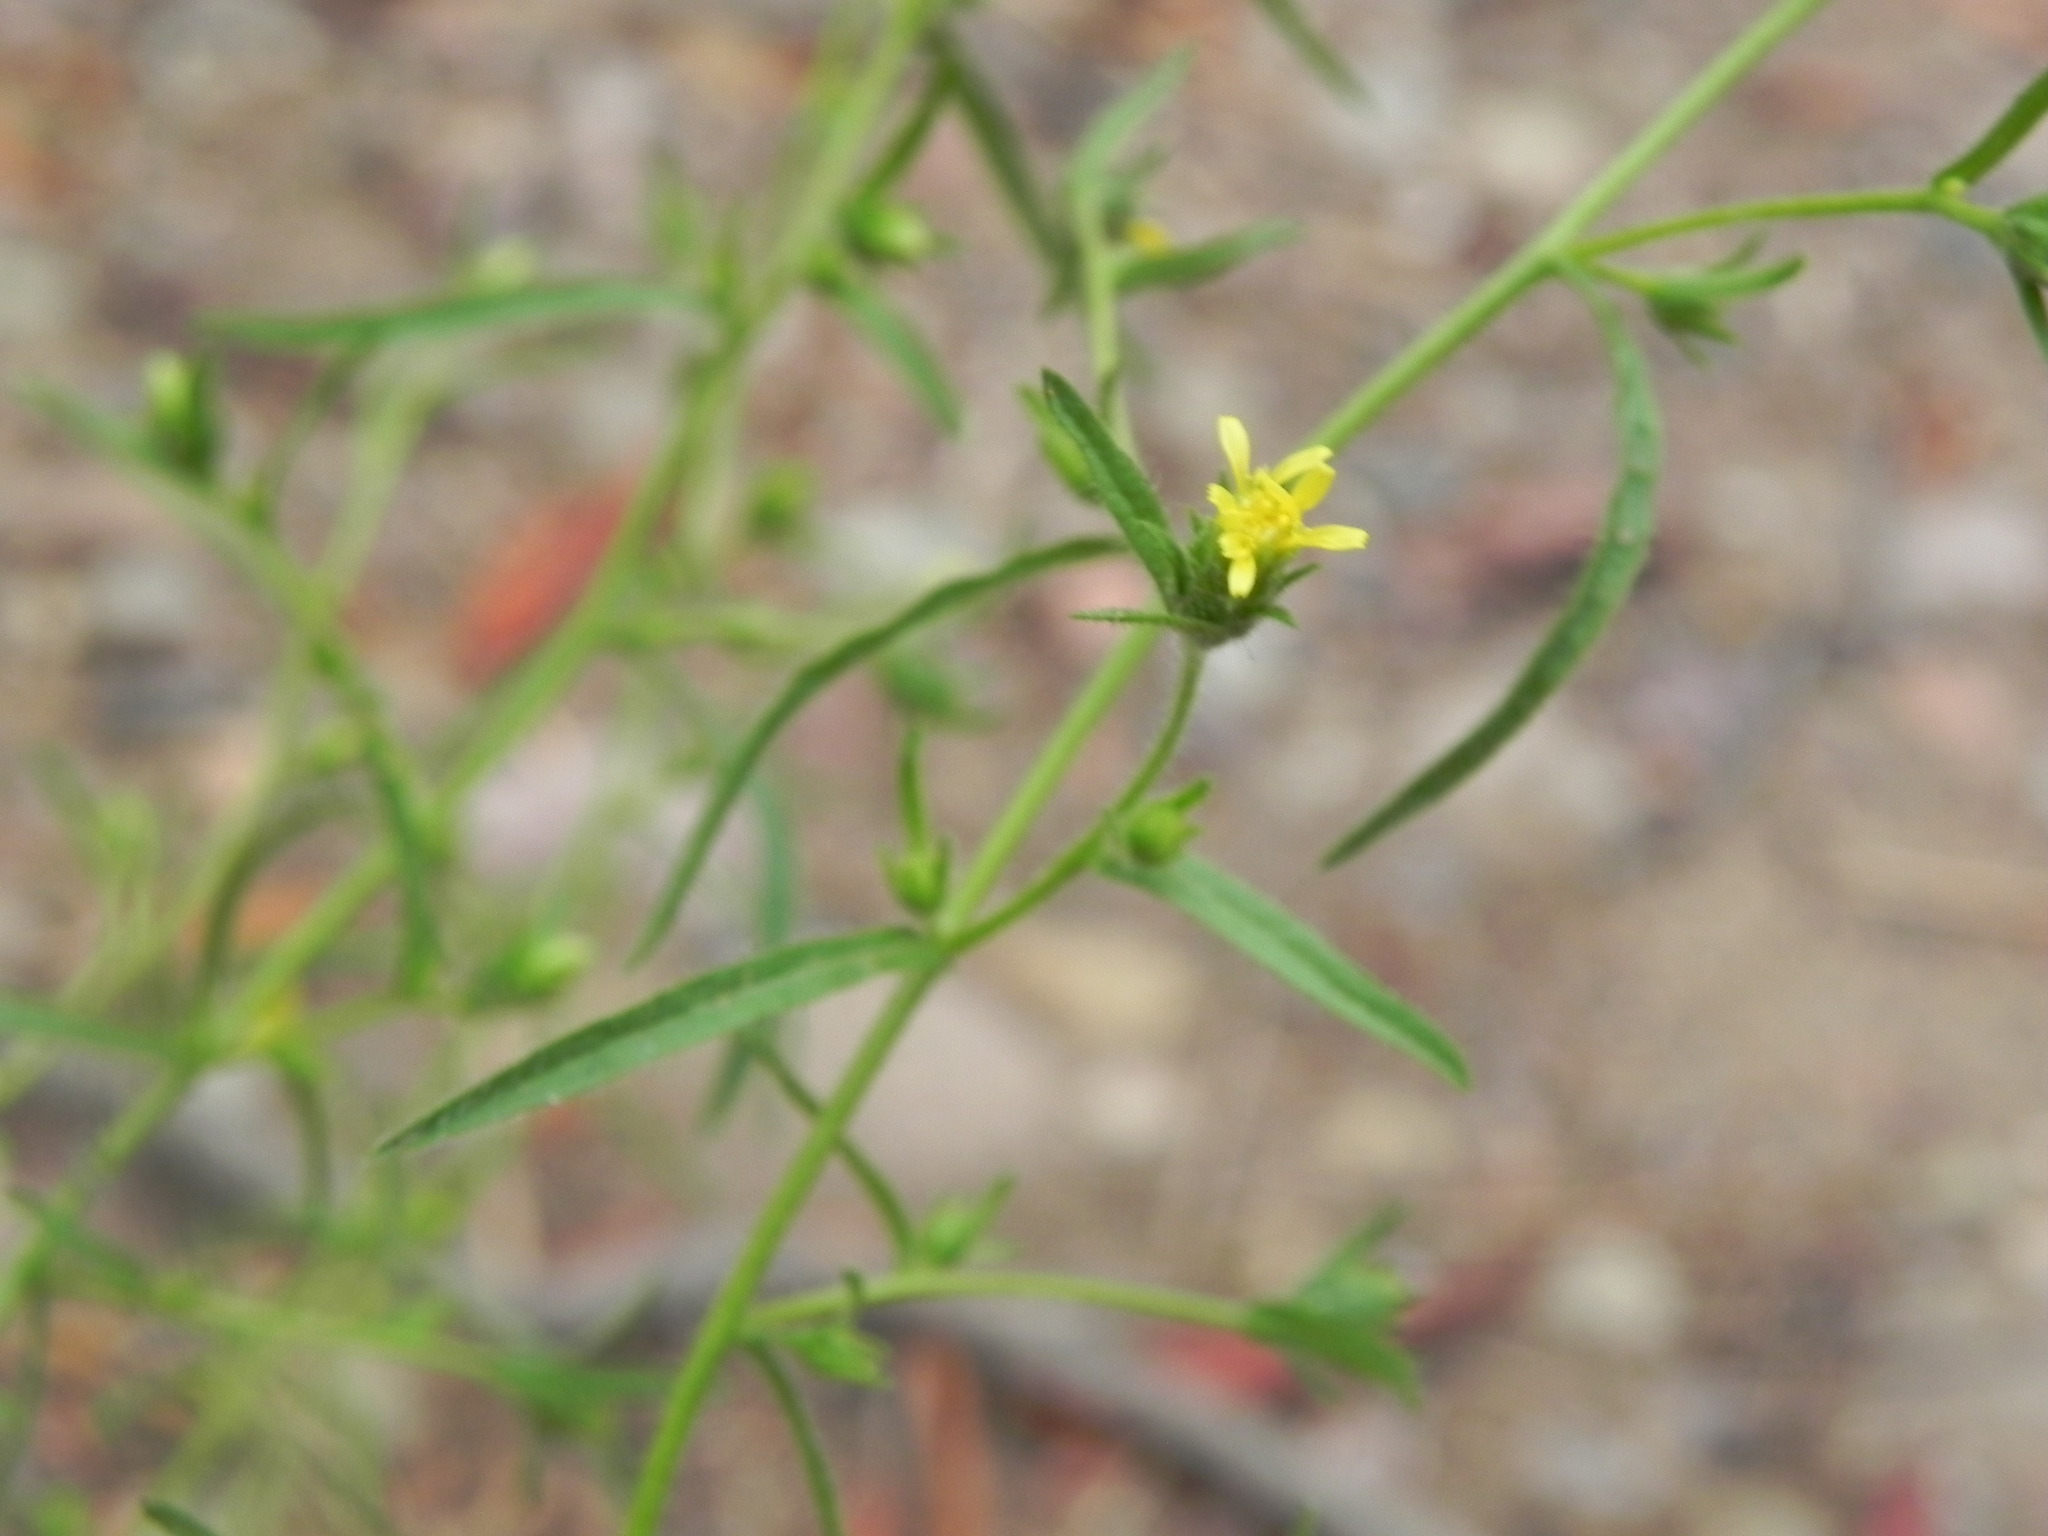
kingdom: Plantae
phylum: Tracheophyta
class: Magnoliopsida
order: Asterales
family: Asteraceae
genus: Dittrichia
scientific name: Dittrichia graveolens
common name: Stinking fleabane
